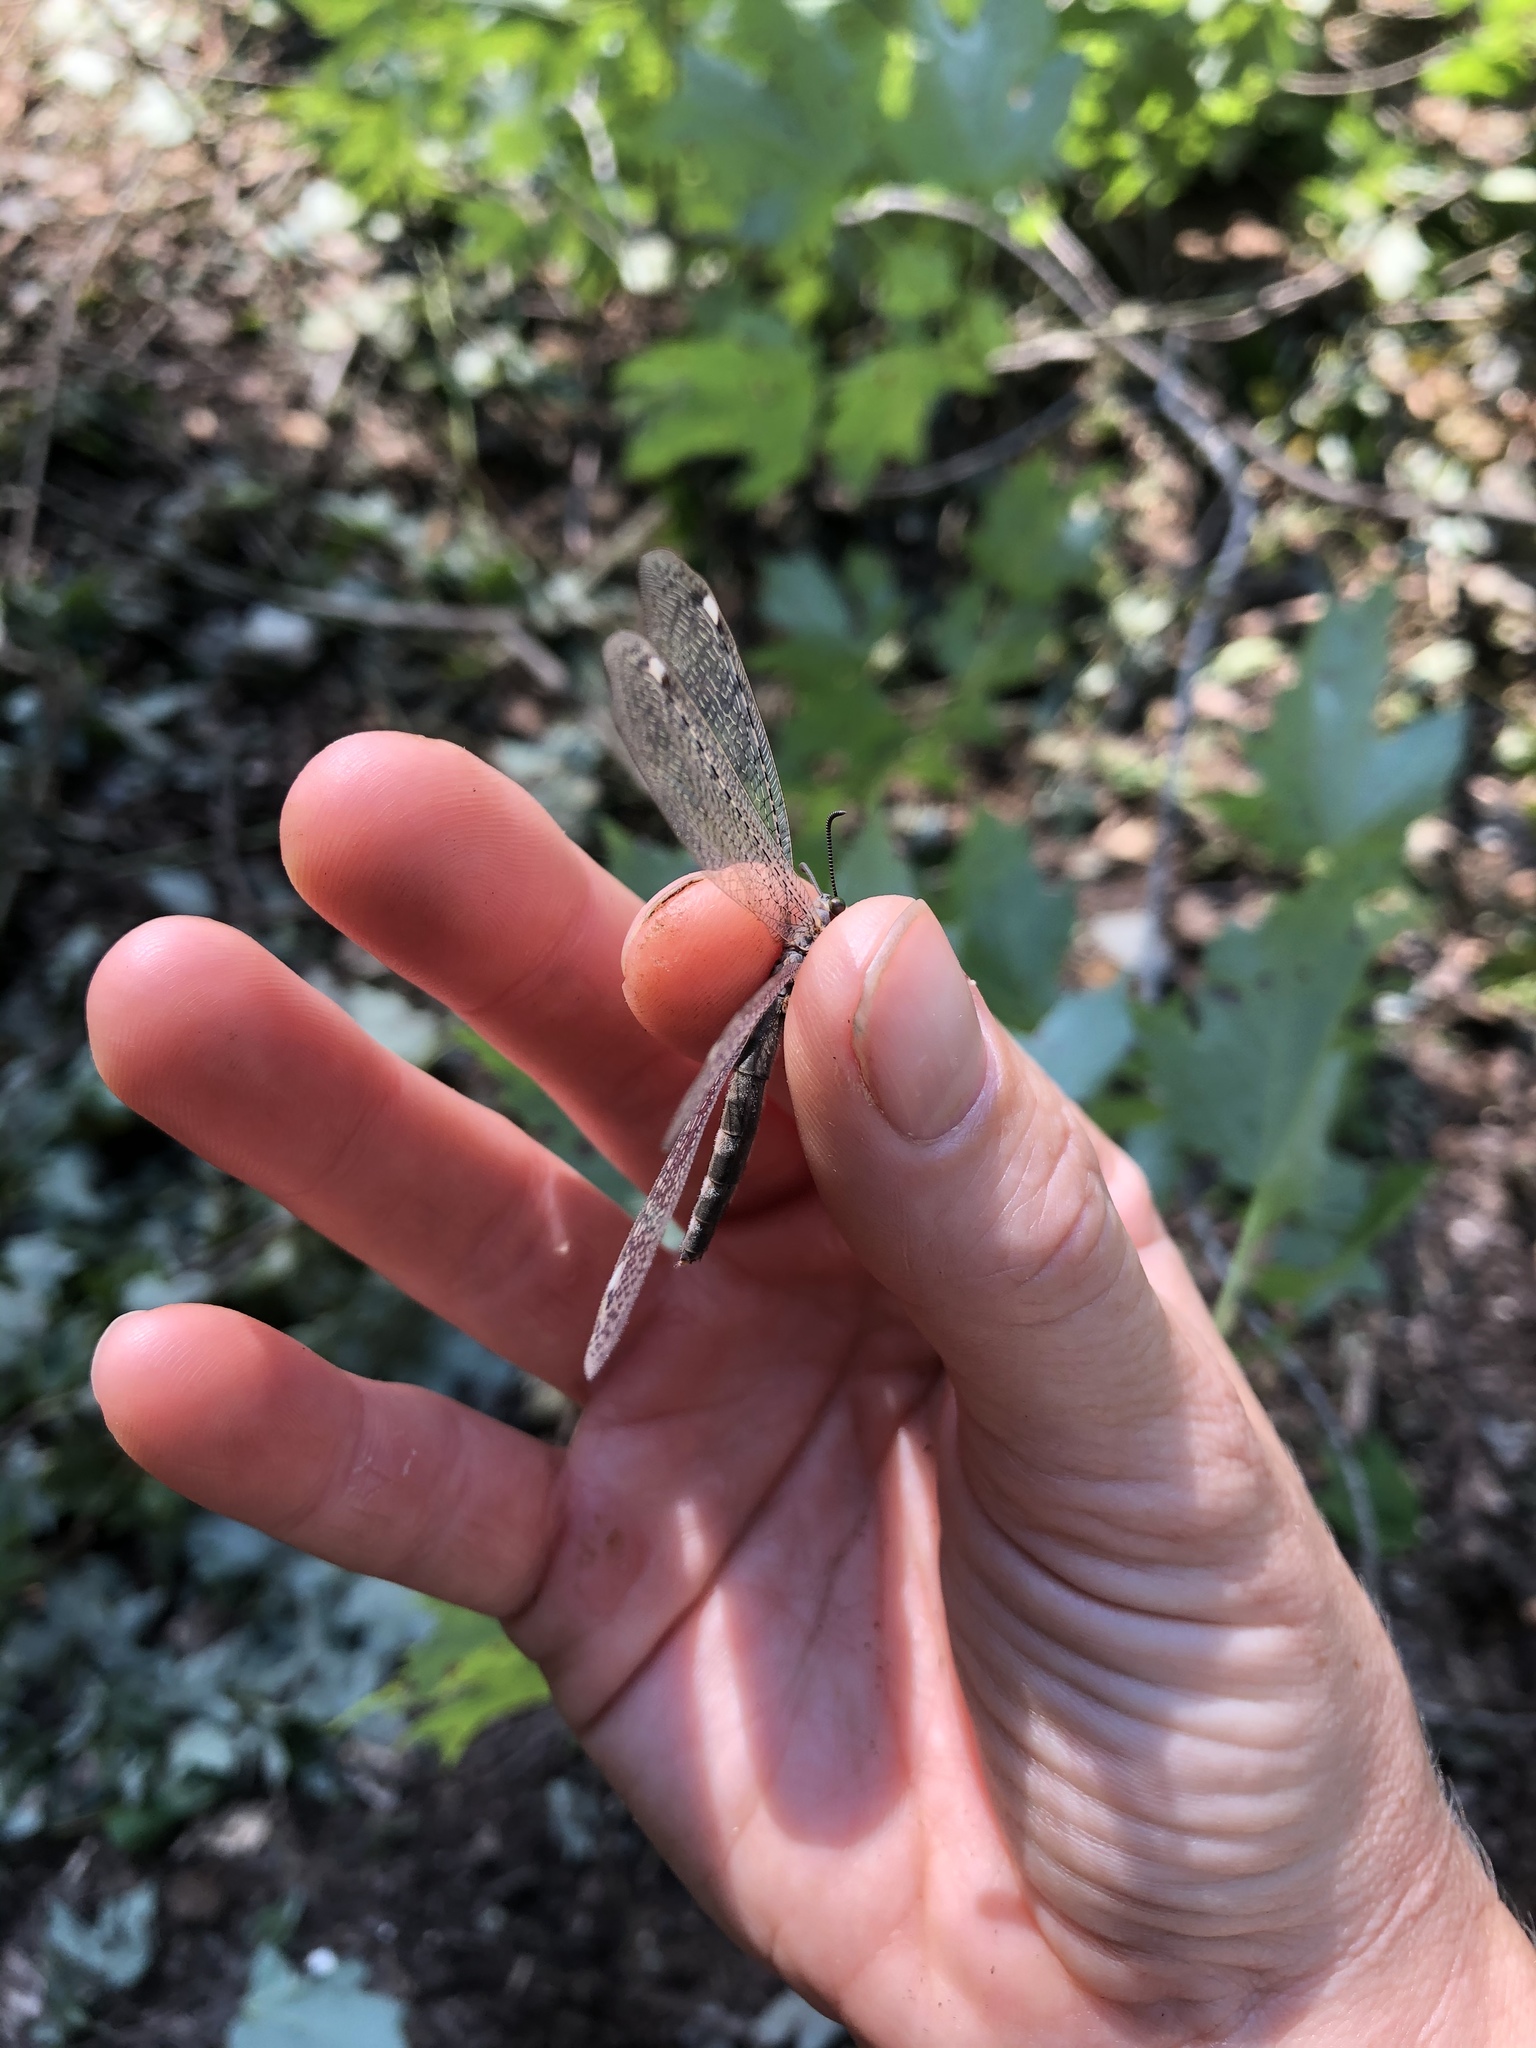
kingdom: Animalia
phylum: Arthropoda
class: Insecta
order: Neuroptera
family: Myrmeleontidae
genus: Myrmeleon
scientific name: Myrmeleon immaculatus
